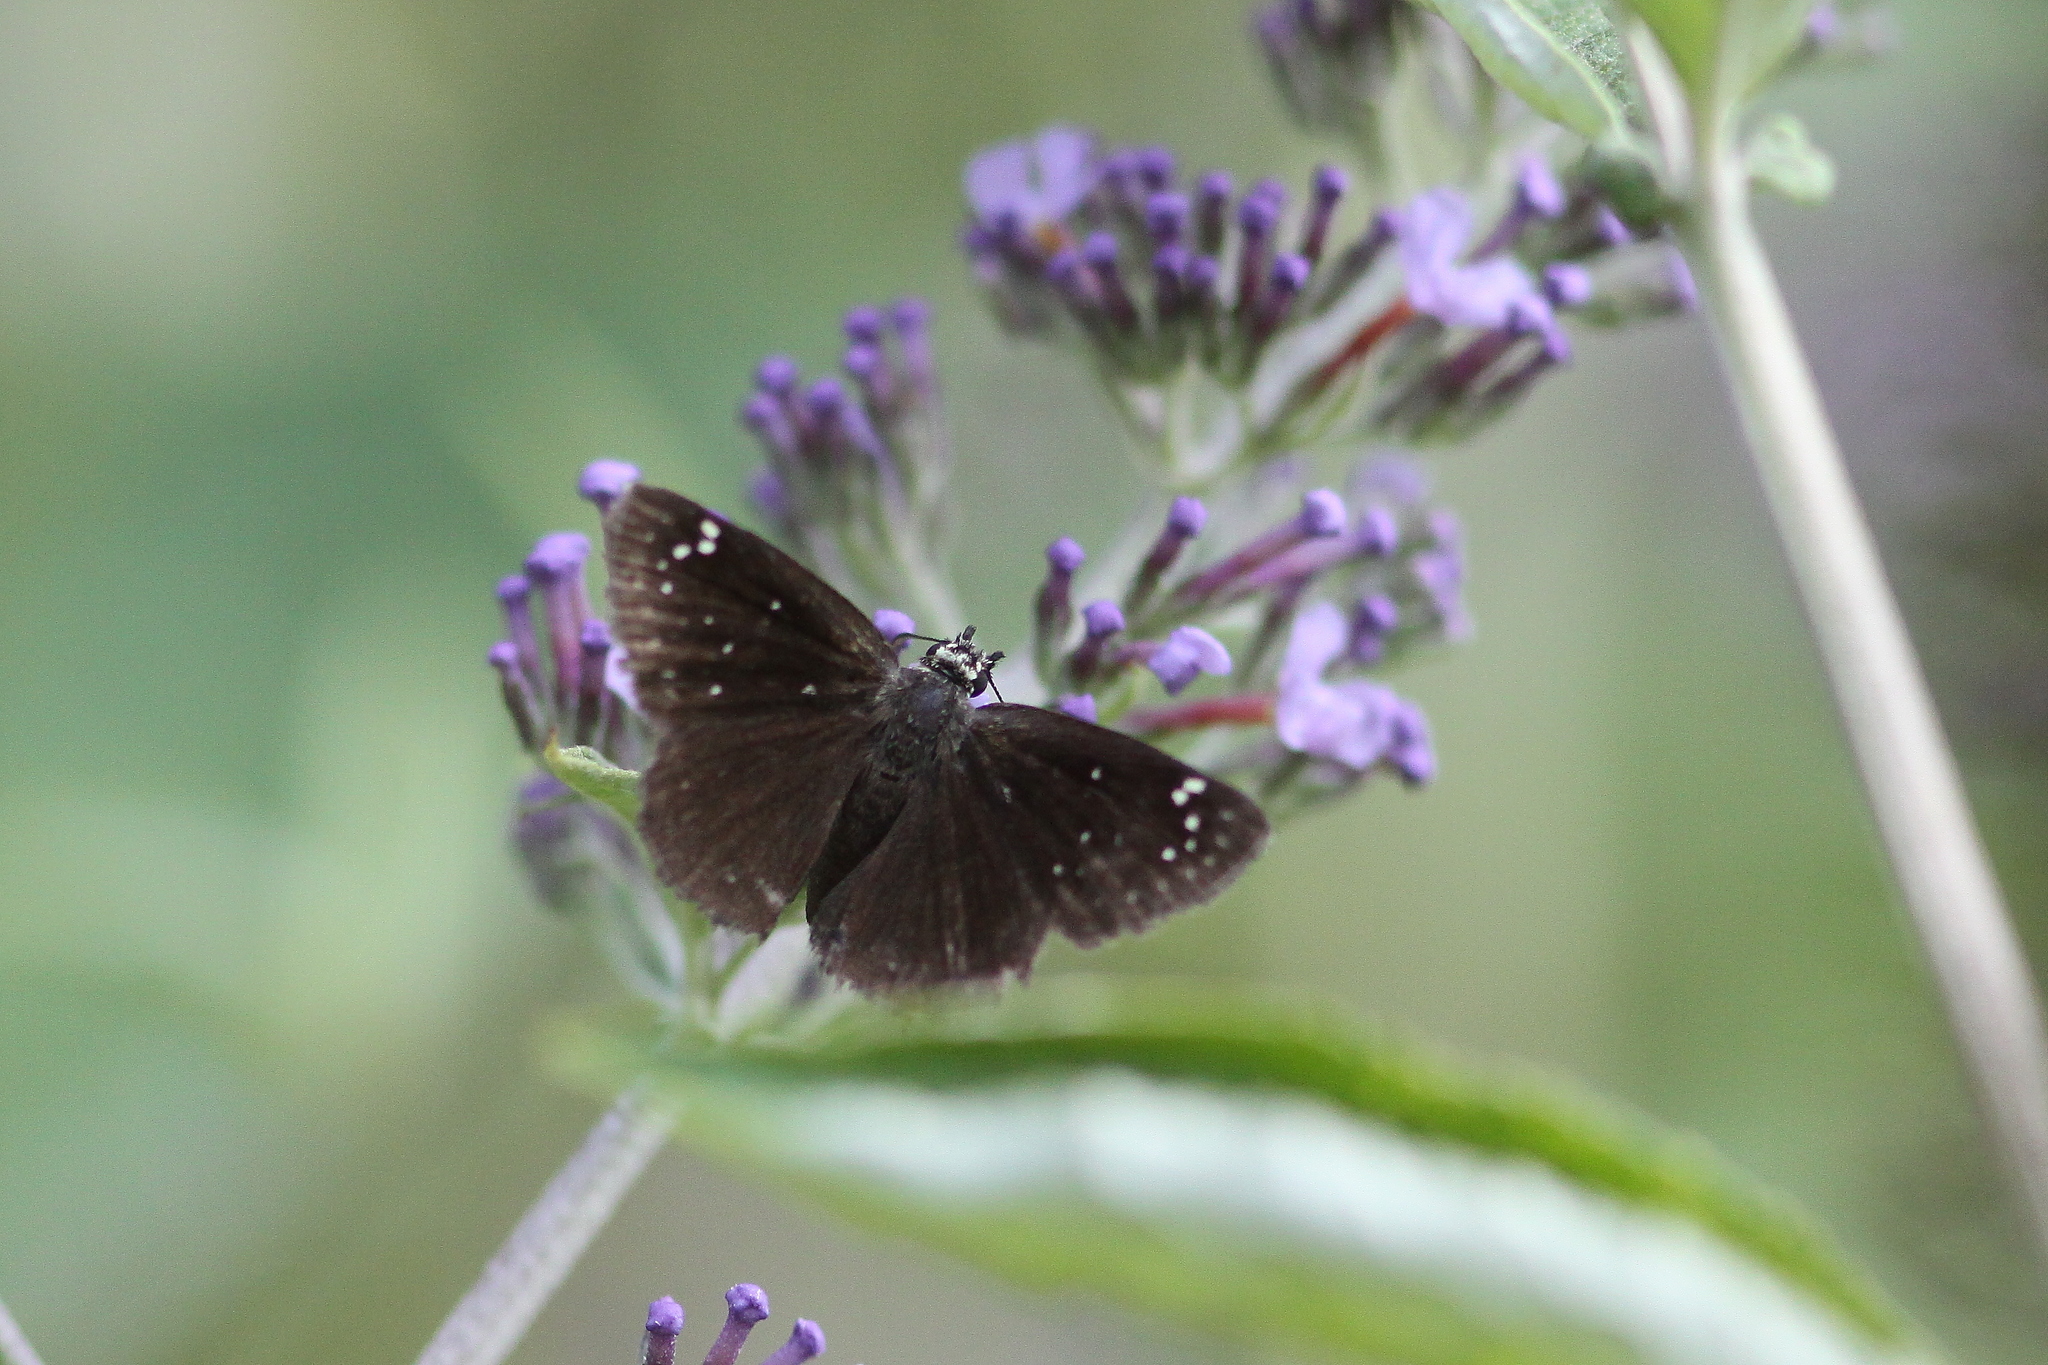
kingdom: Animalia
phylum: Arthropoda
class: Insecta
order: Lepidoptera
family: Hesperiidae
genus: Pholisora
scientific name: Pholisora catullus
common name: Common sootywing
